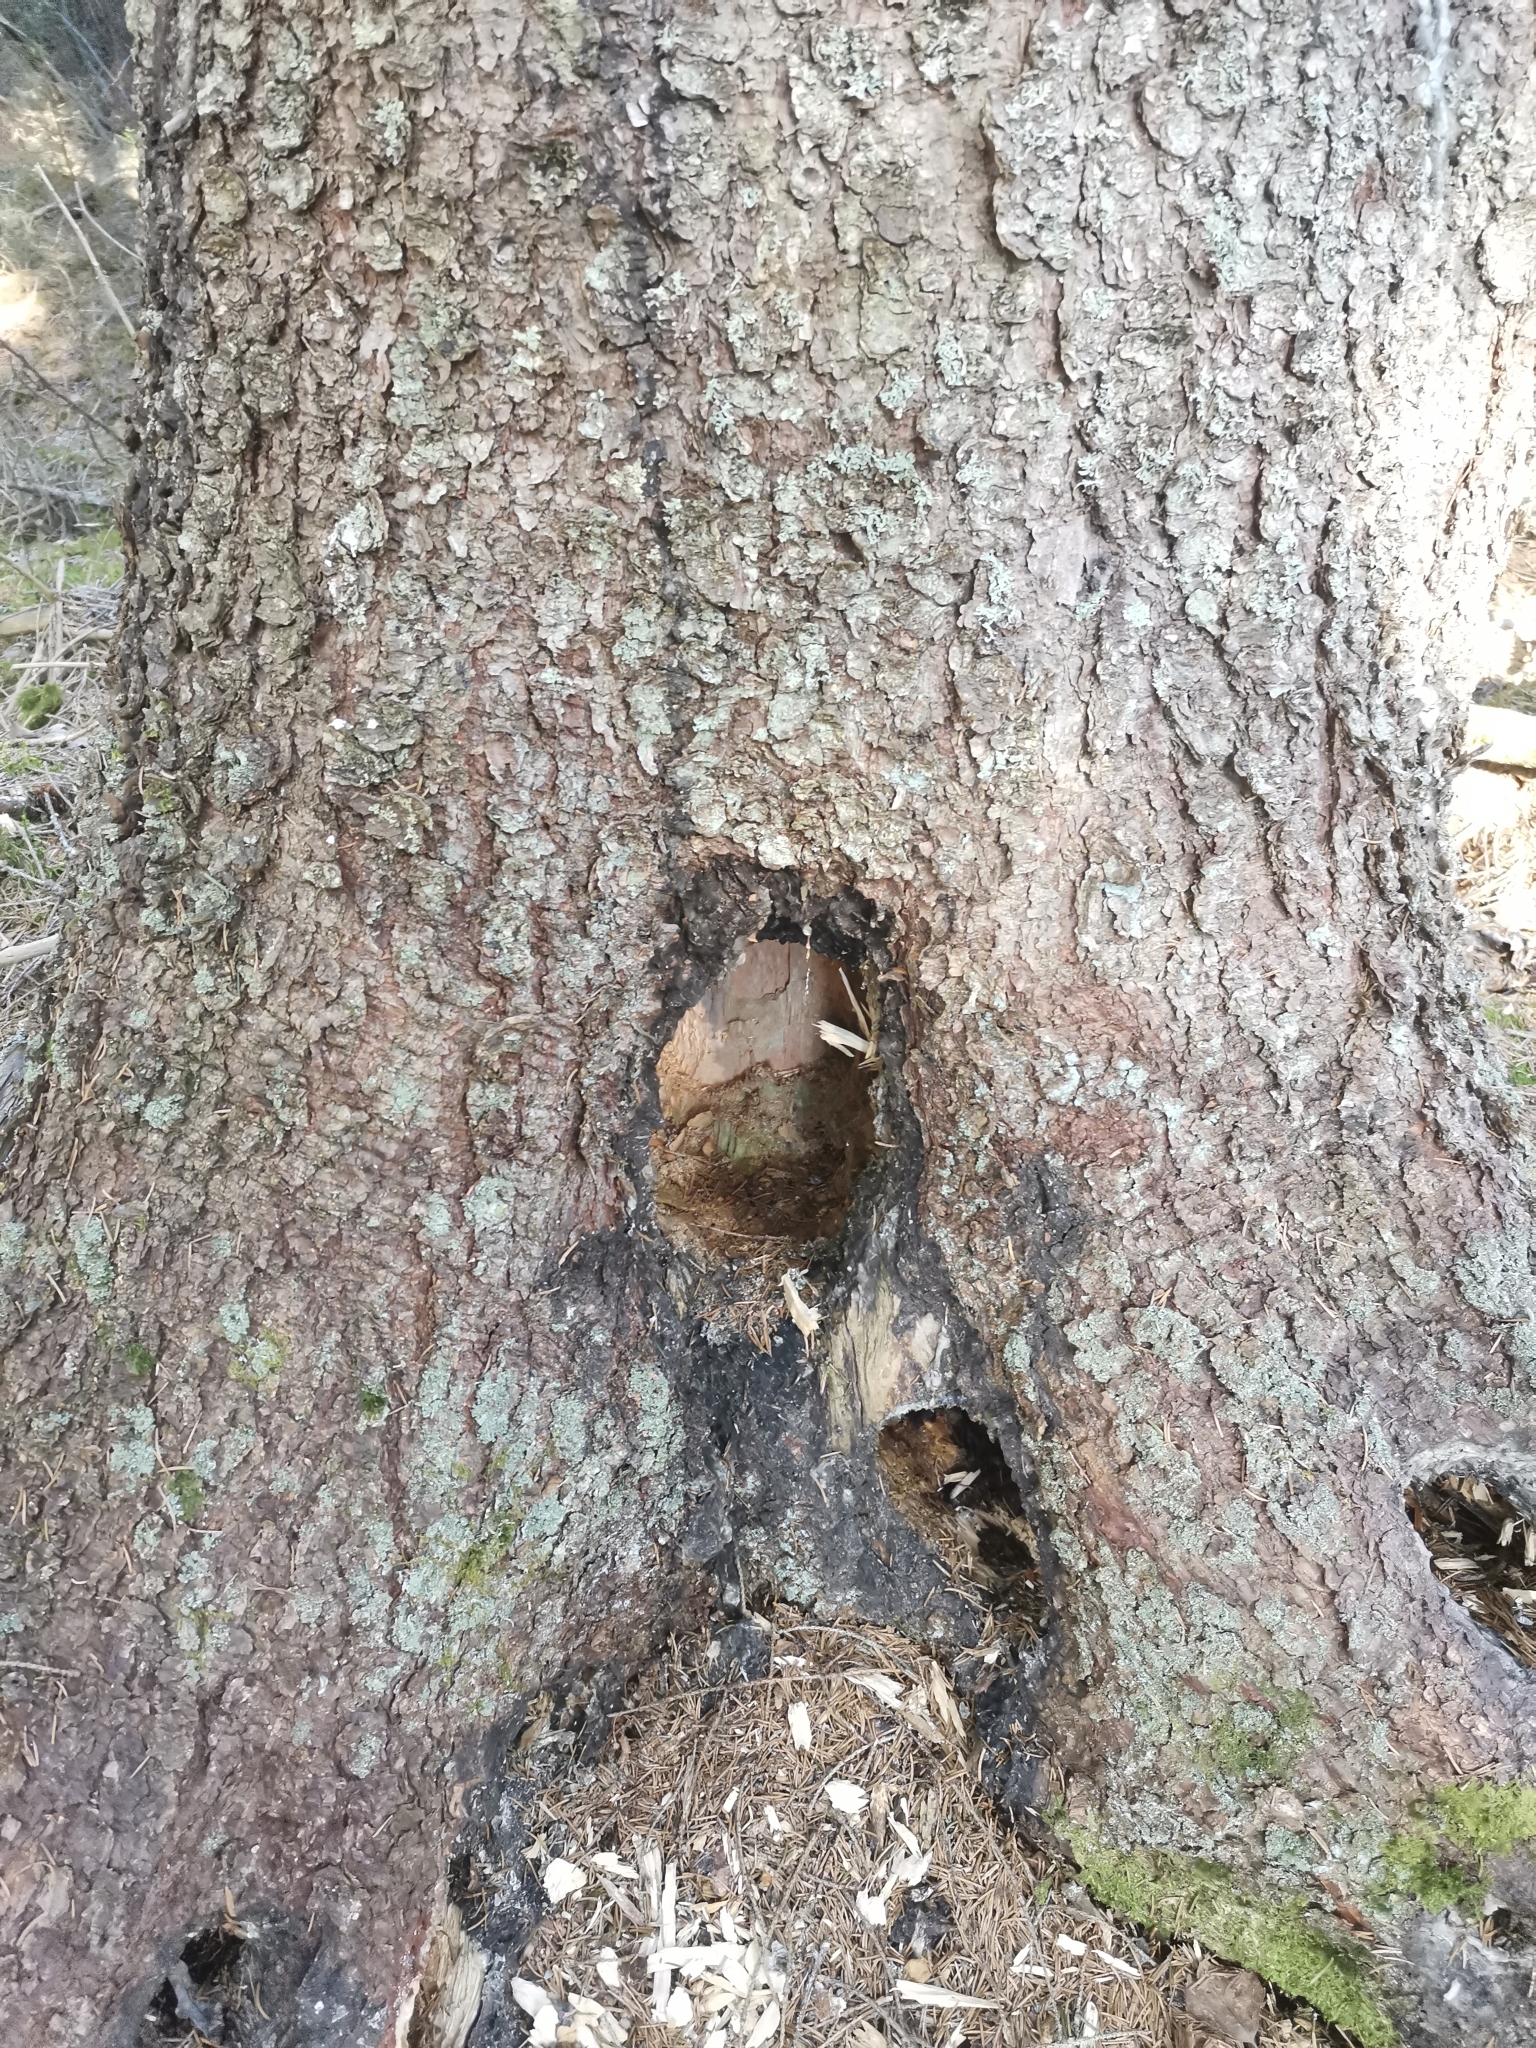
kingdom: Animalia
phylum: Chordata
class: Aves
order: Piciformes
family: Picidae
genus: Dryocopus
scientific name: Dryocopus martius
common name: Black woodpecker
